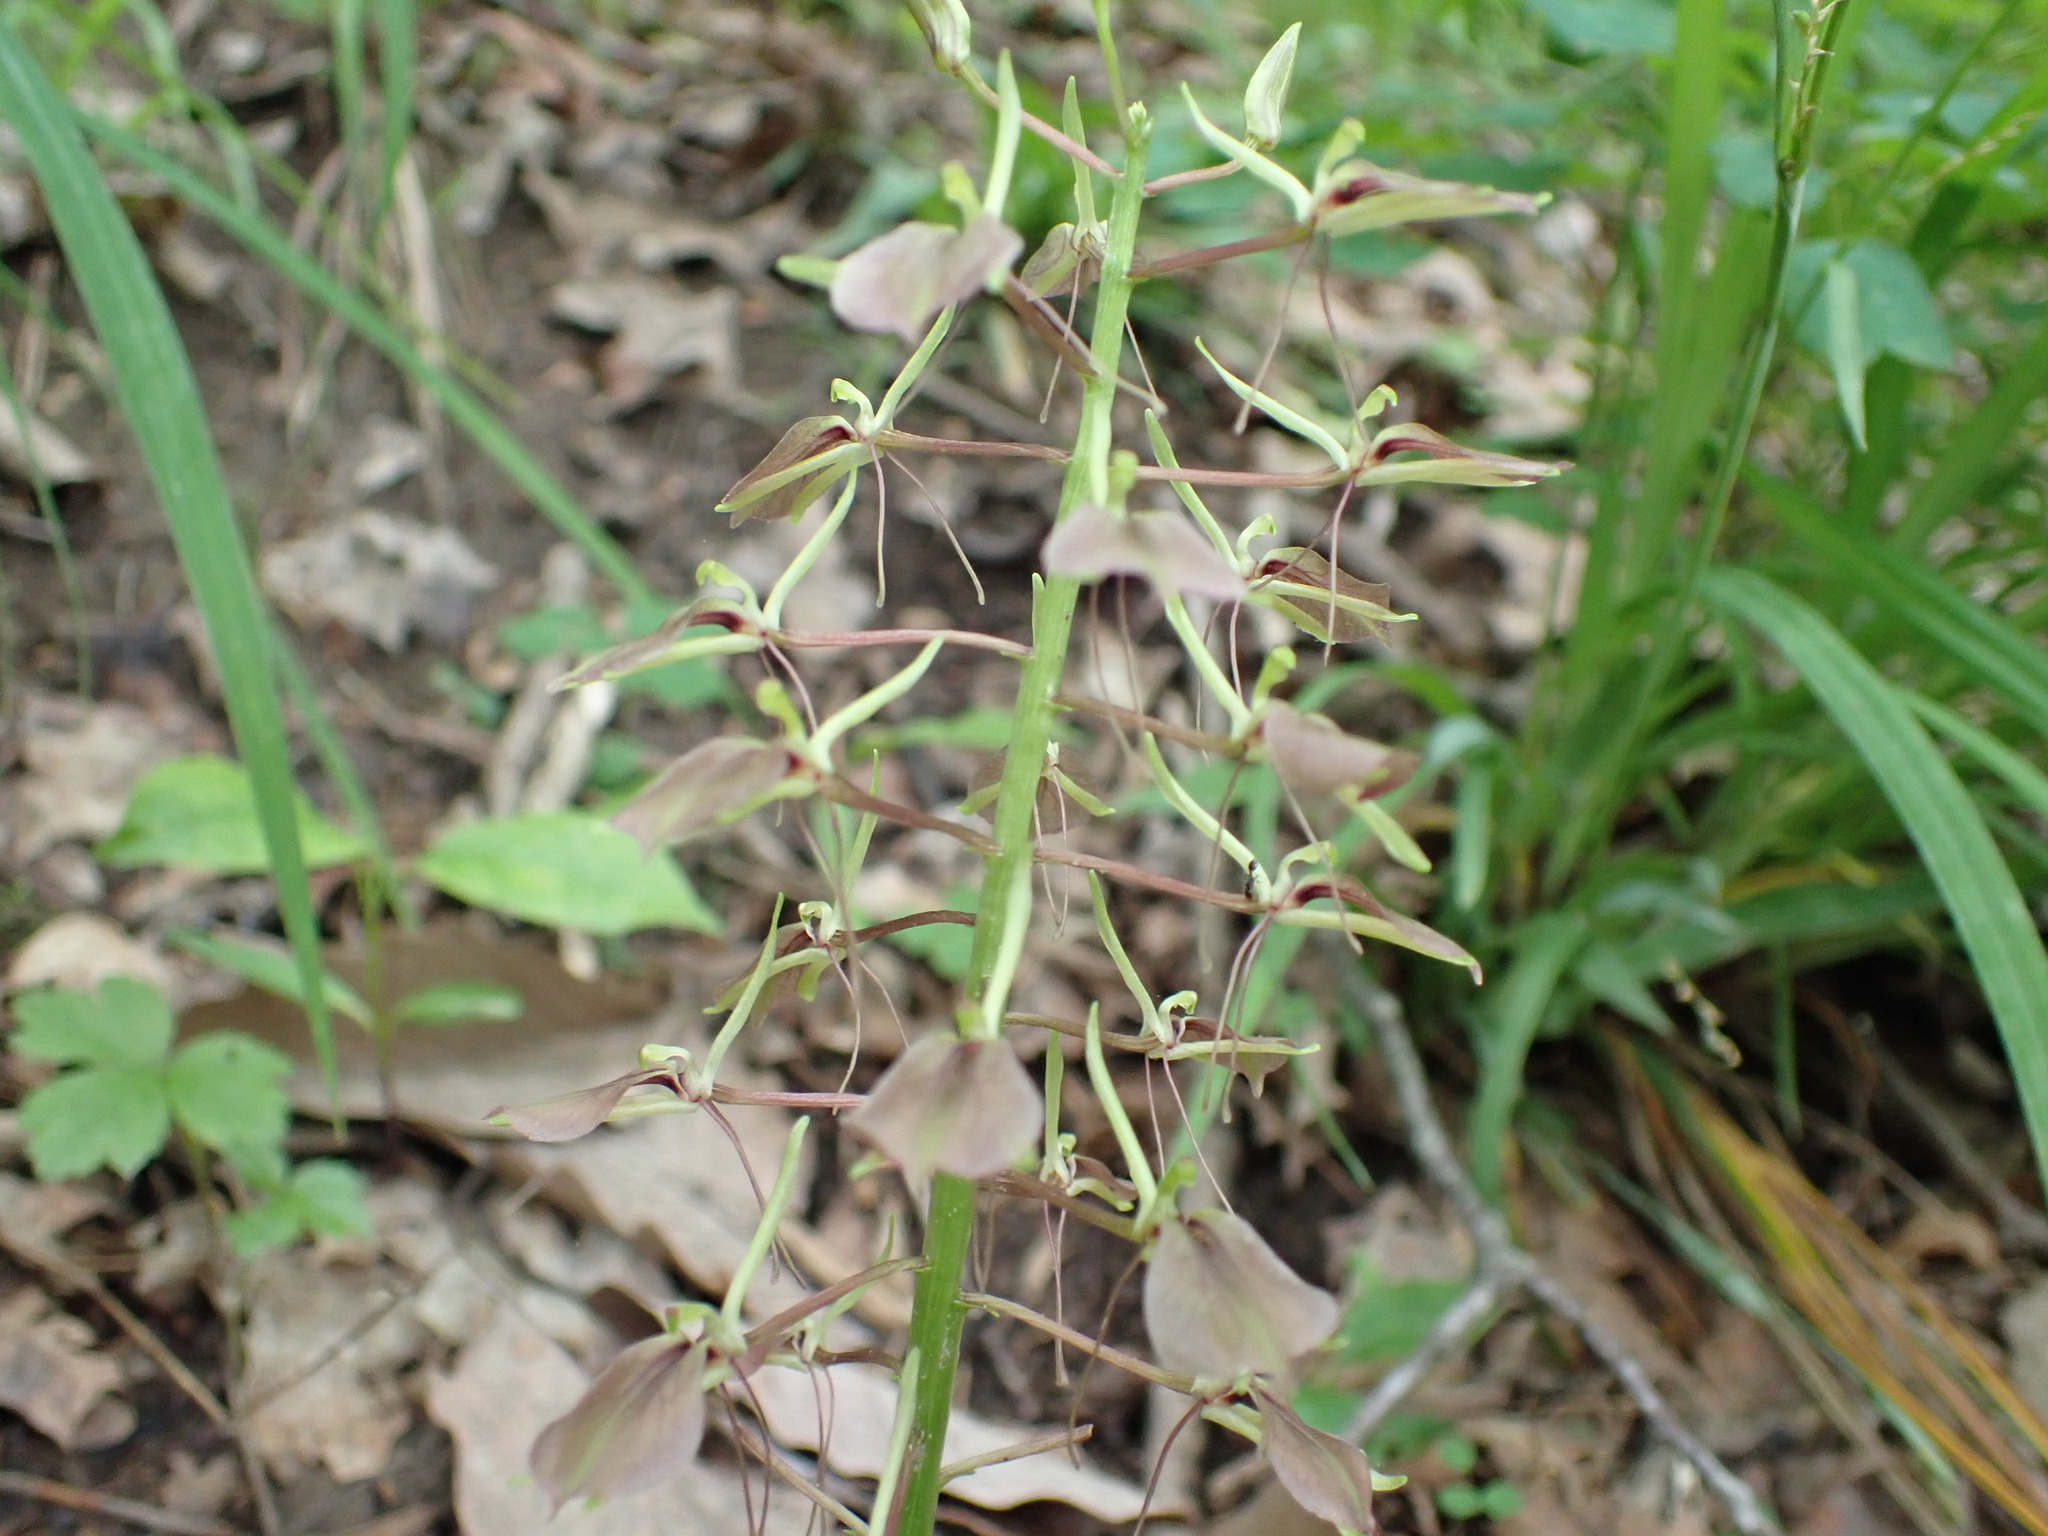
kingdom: Plantae
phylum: Tracheophyta
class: Liliopsida
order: Asparagales
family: Orchidaceae
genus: Liparis
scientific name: Liparis liliifolia
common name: Brown wide-lip orchid
